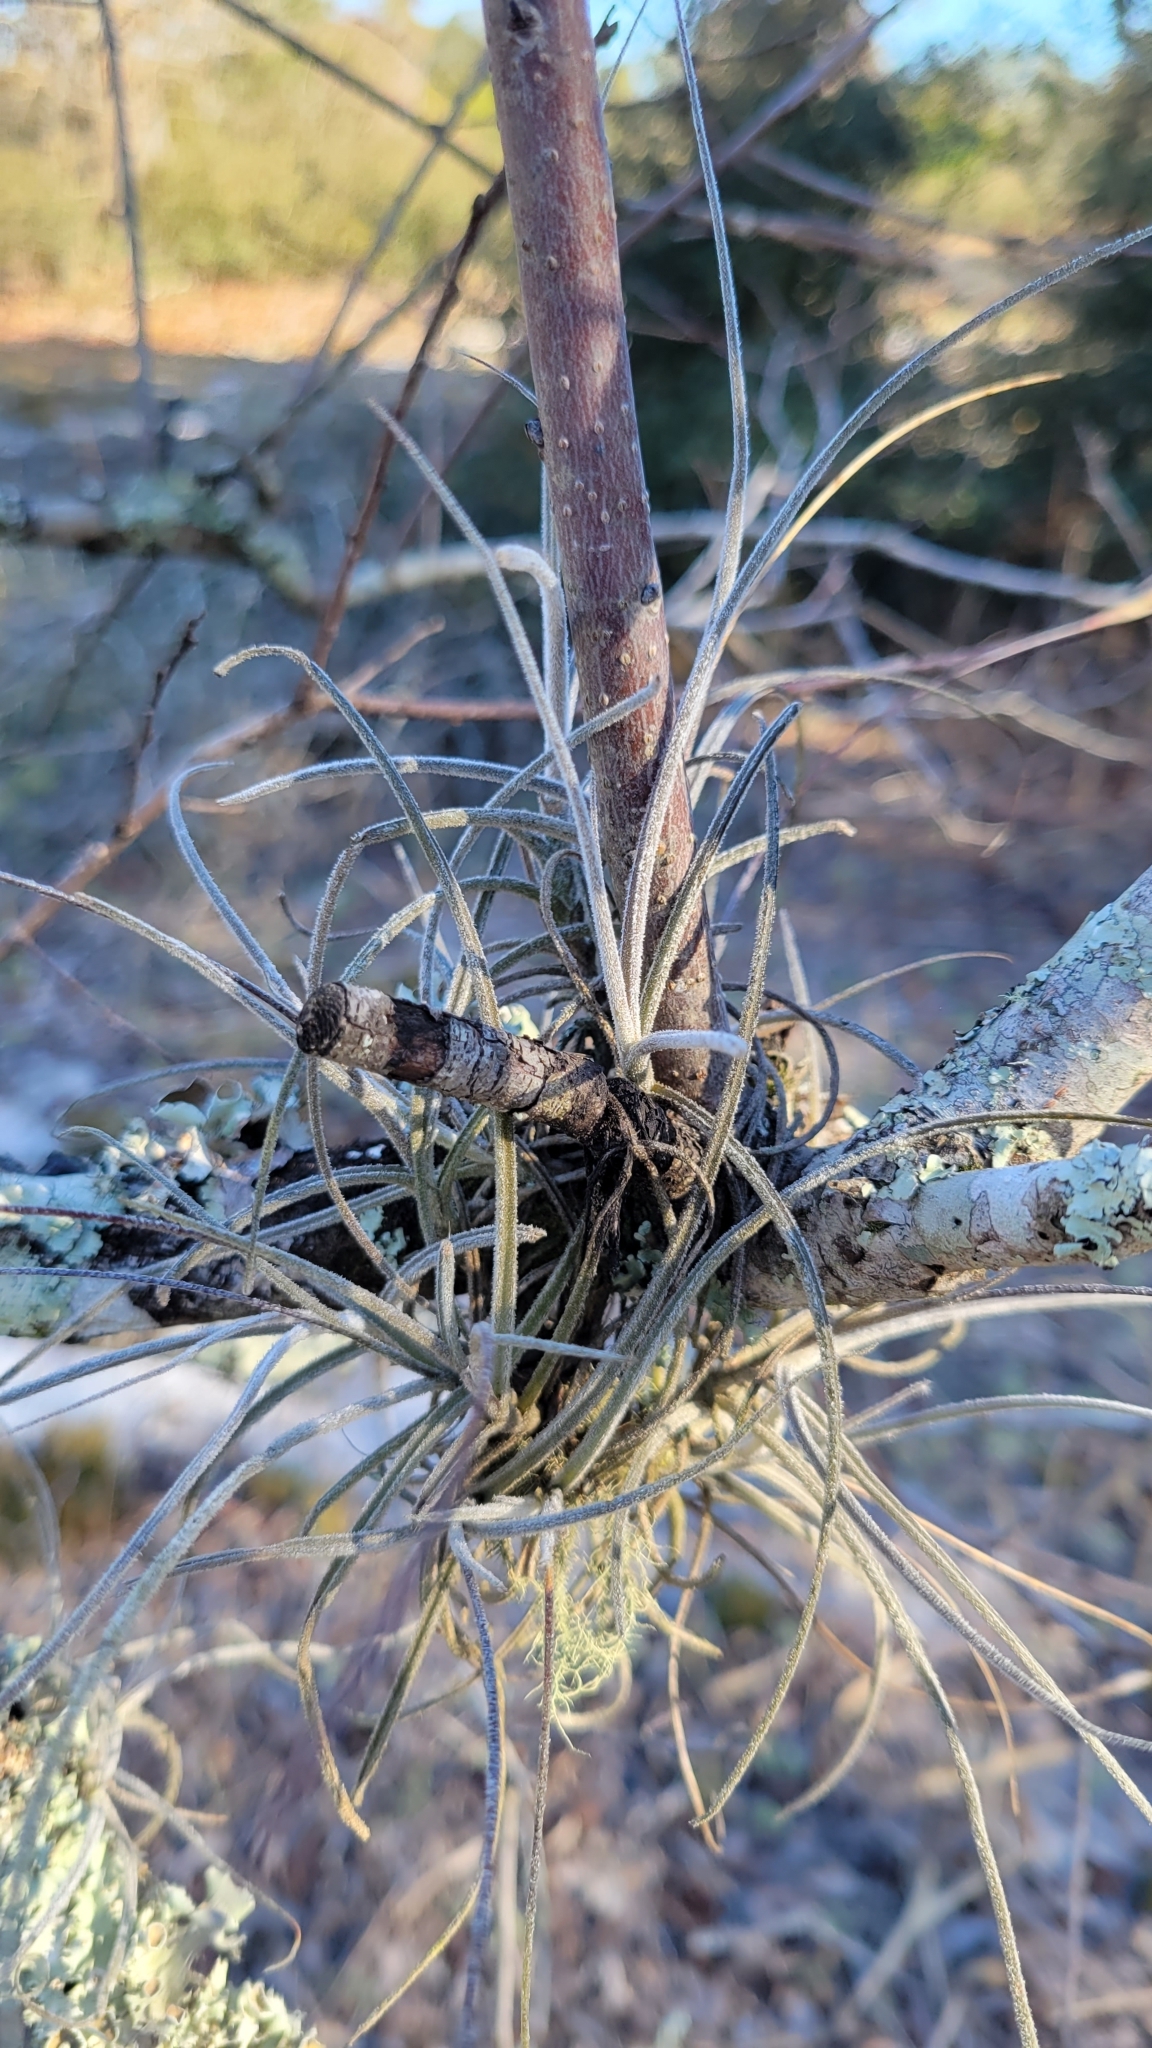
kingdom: Plantae
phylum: Tracheophyta
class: Liliopsida
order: Poales
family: Bromeliaceae
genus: Tillandsia
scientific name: Tillandsia recurvata
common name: Small ballmoss
